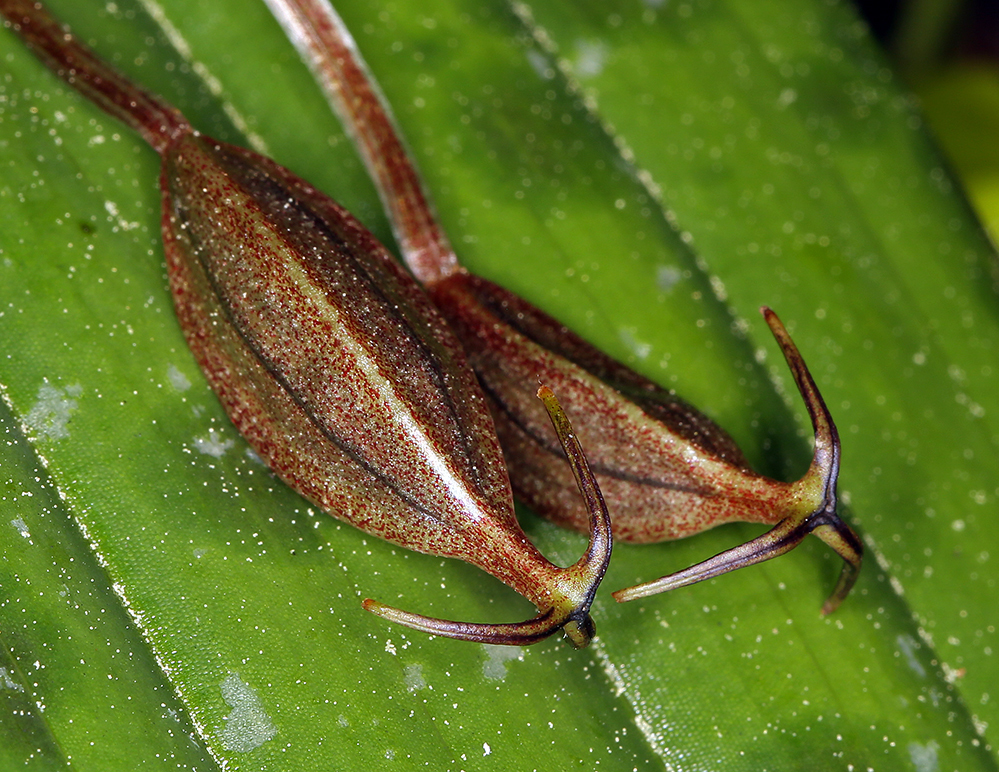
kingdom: Plantae
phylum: Tracheophyta
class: Liliopsida
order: Liliales
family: Liliaceae
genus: Scoliopus
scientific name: Scoliopus bigelovii
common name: Foetid adder's-tongue
